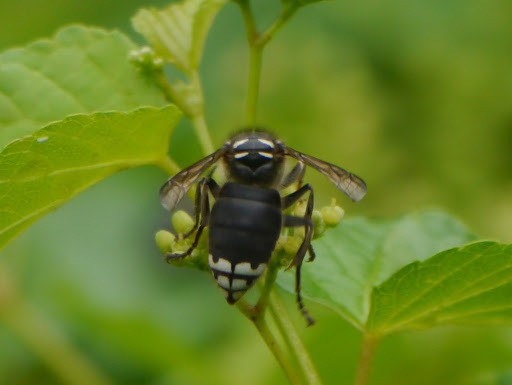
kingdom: Animalia
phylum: Arthropoda
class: Insecta
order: Hymenoptera
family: Vespidae
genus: Dolichovespula
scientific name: Dolichovespula maculata
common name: Bald-faced hornet
